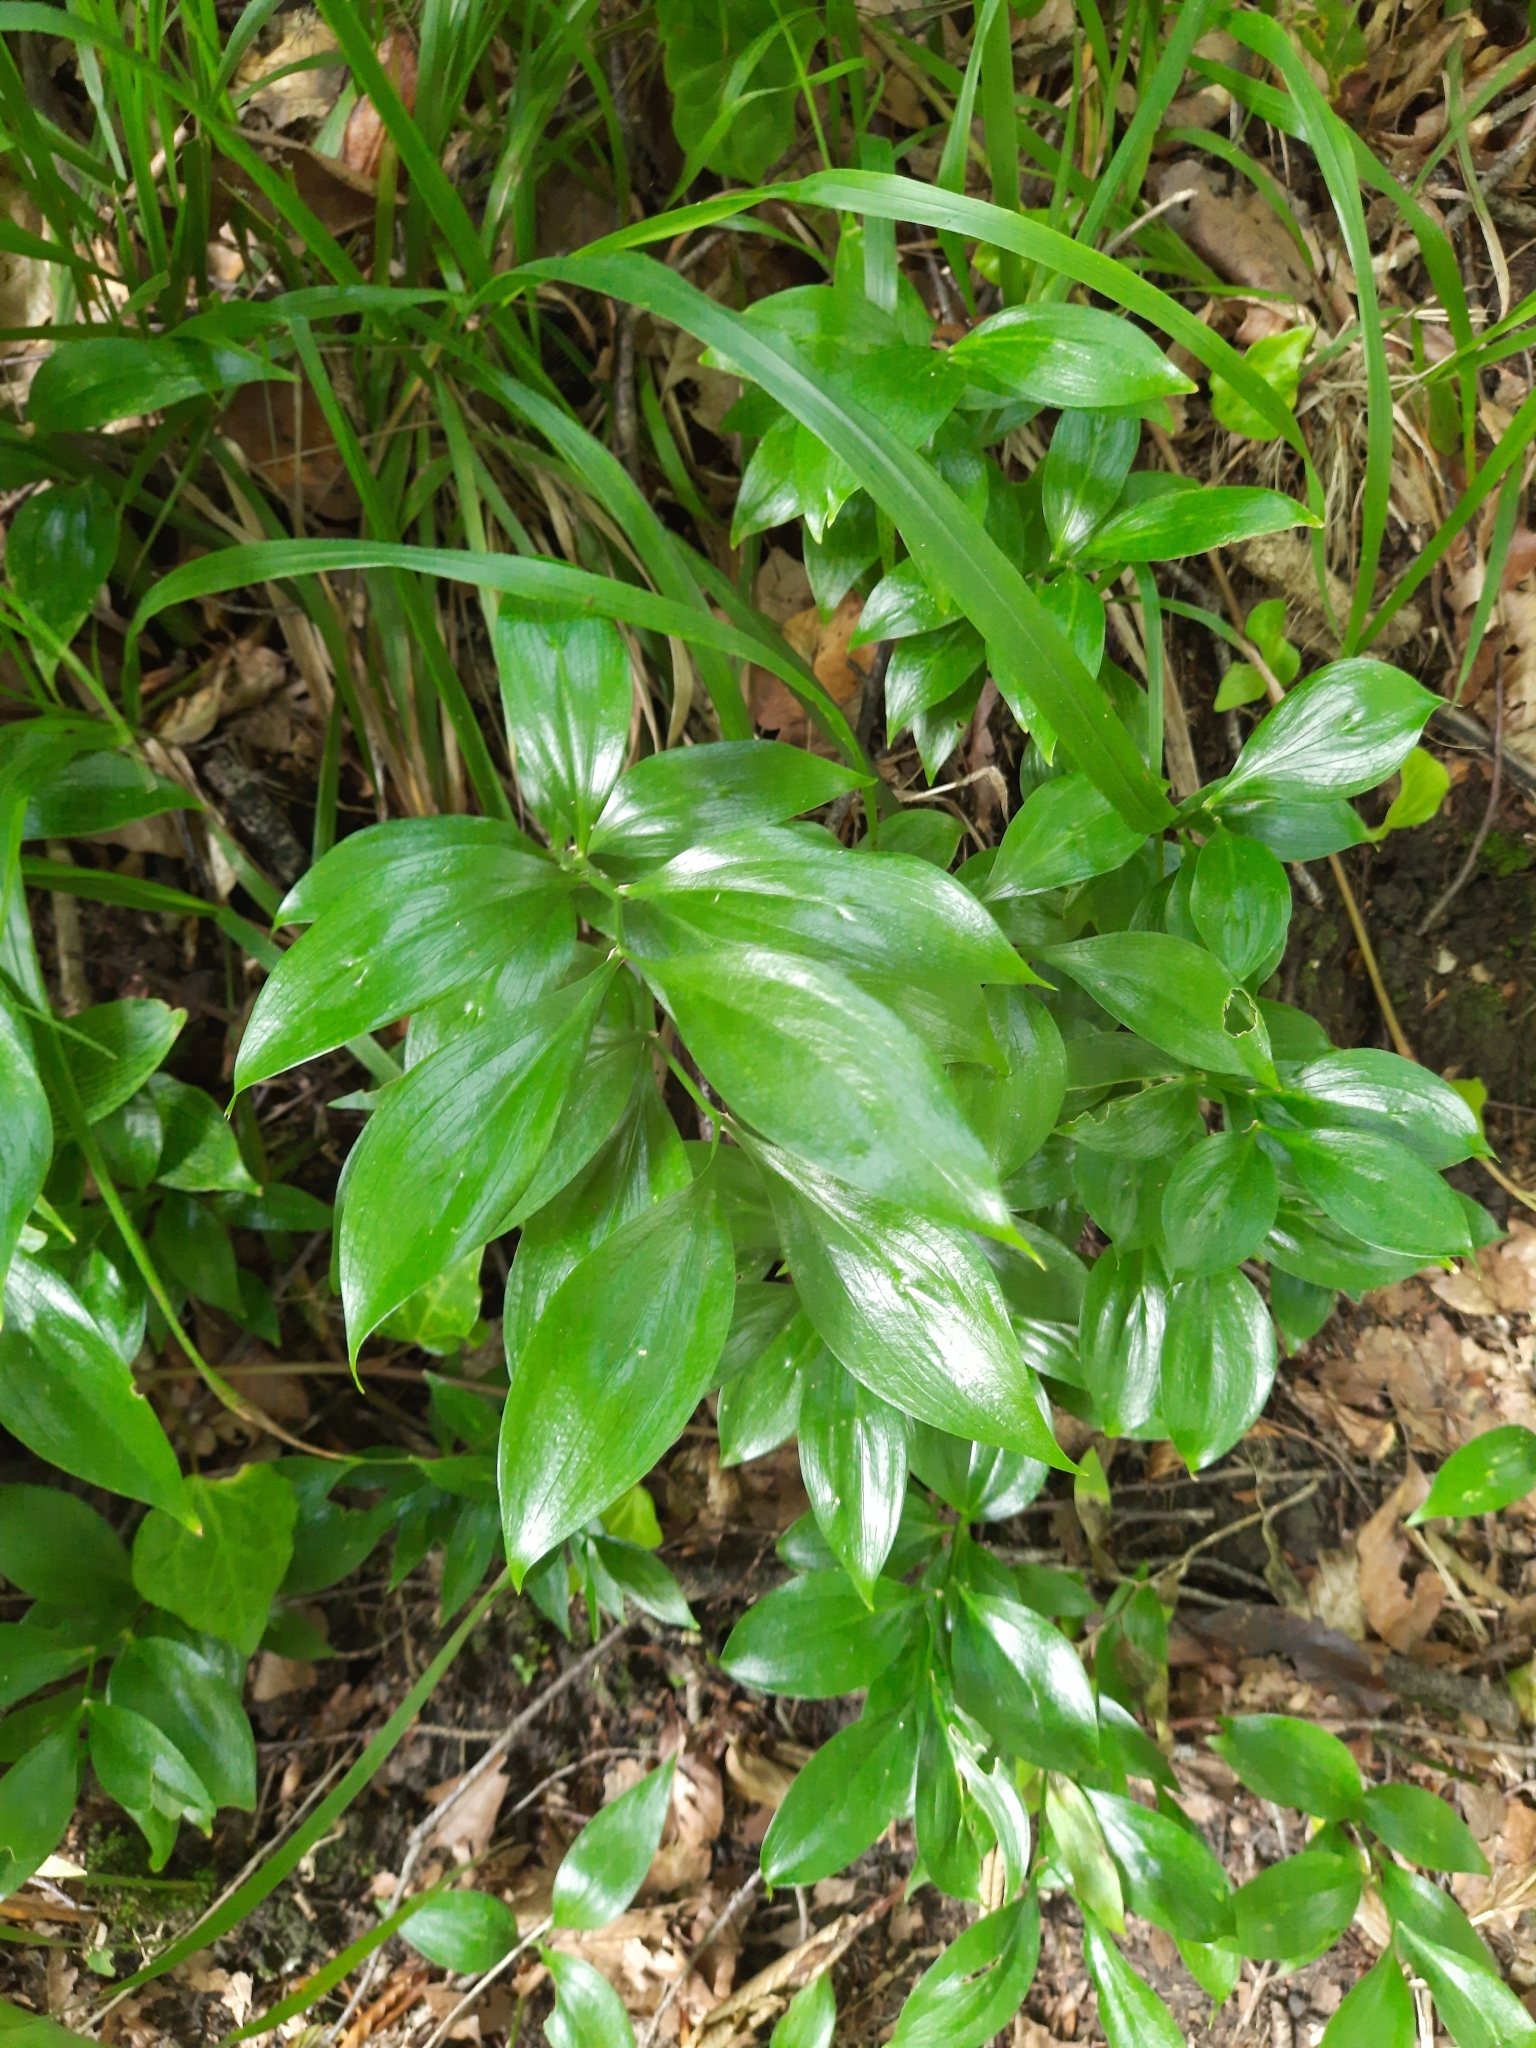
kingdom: Plantae
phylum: Tracheophyta
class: Liliopsida
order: Asparagales
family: Asparagaceae
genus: Ruscus
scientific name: Ruscus colchicus
